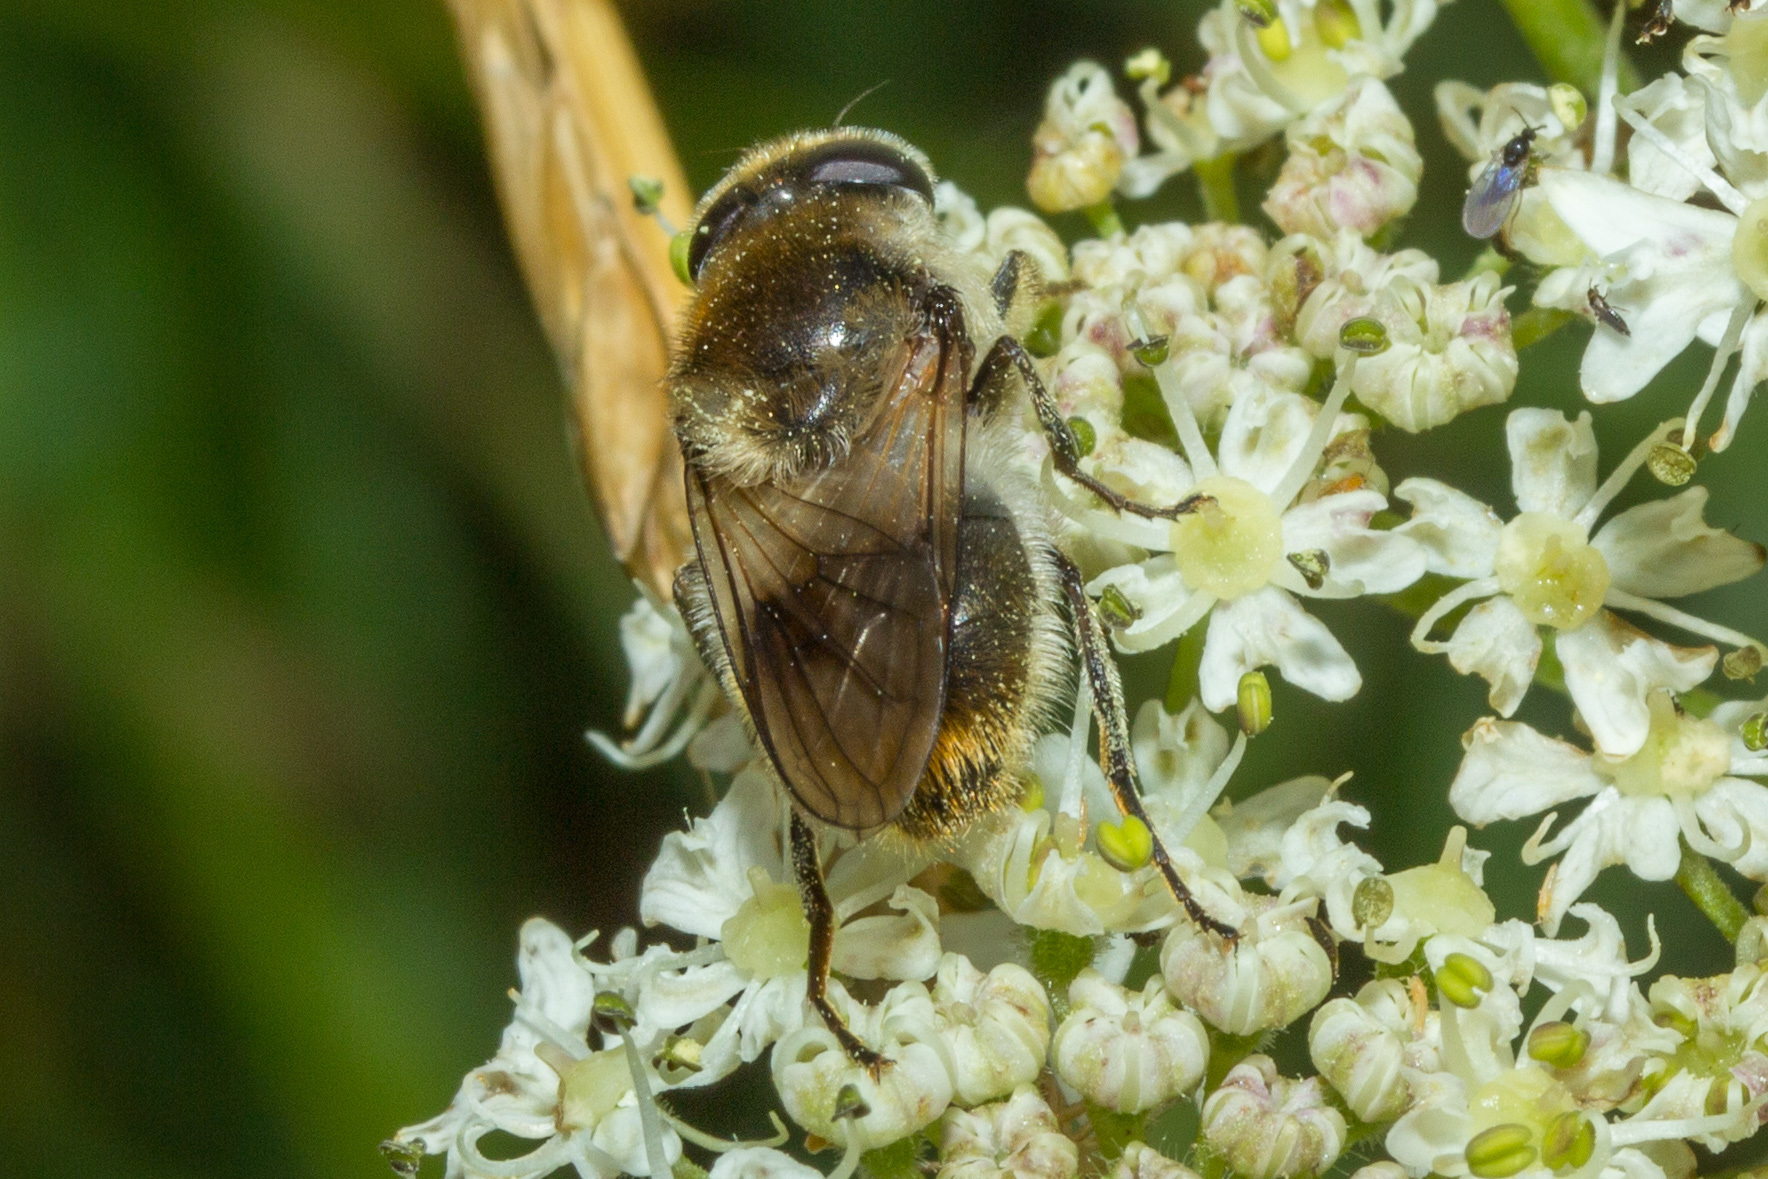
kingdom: Animalia
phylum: Arthropoda
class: Insecta
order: Diptera
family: Syrphidae
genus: Cheilosia
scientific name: Cheilosia illustrata
